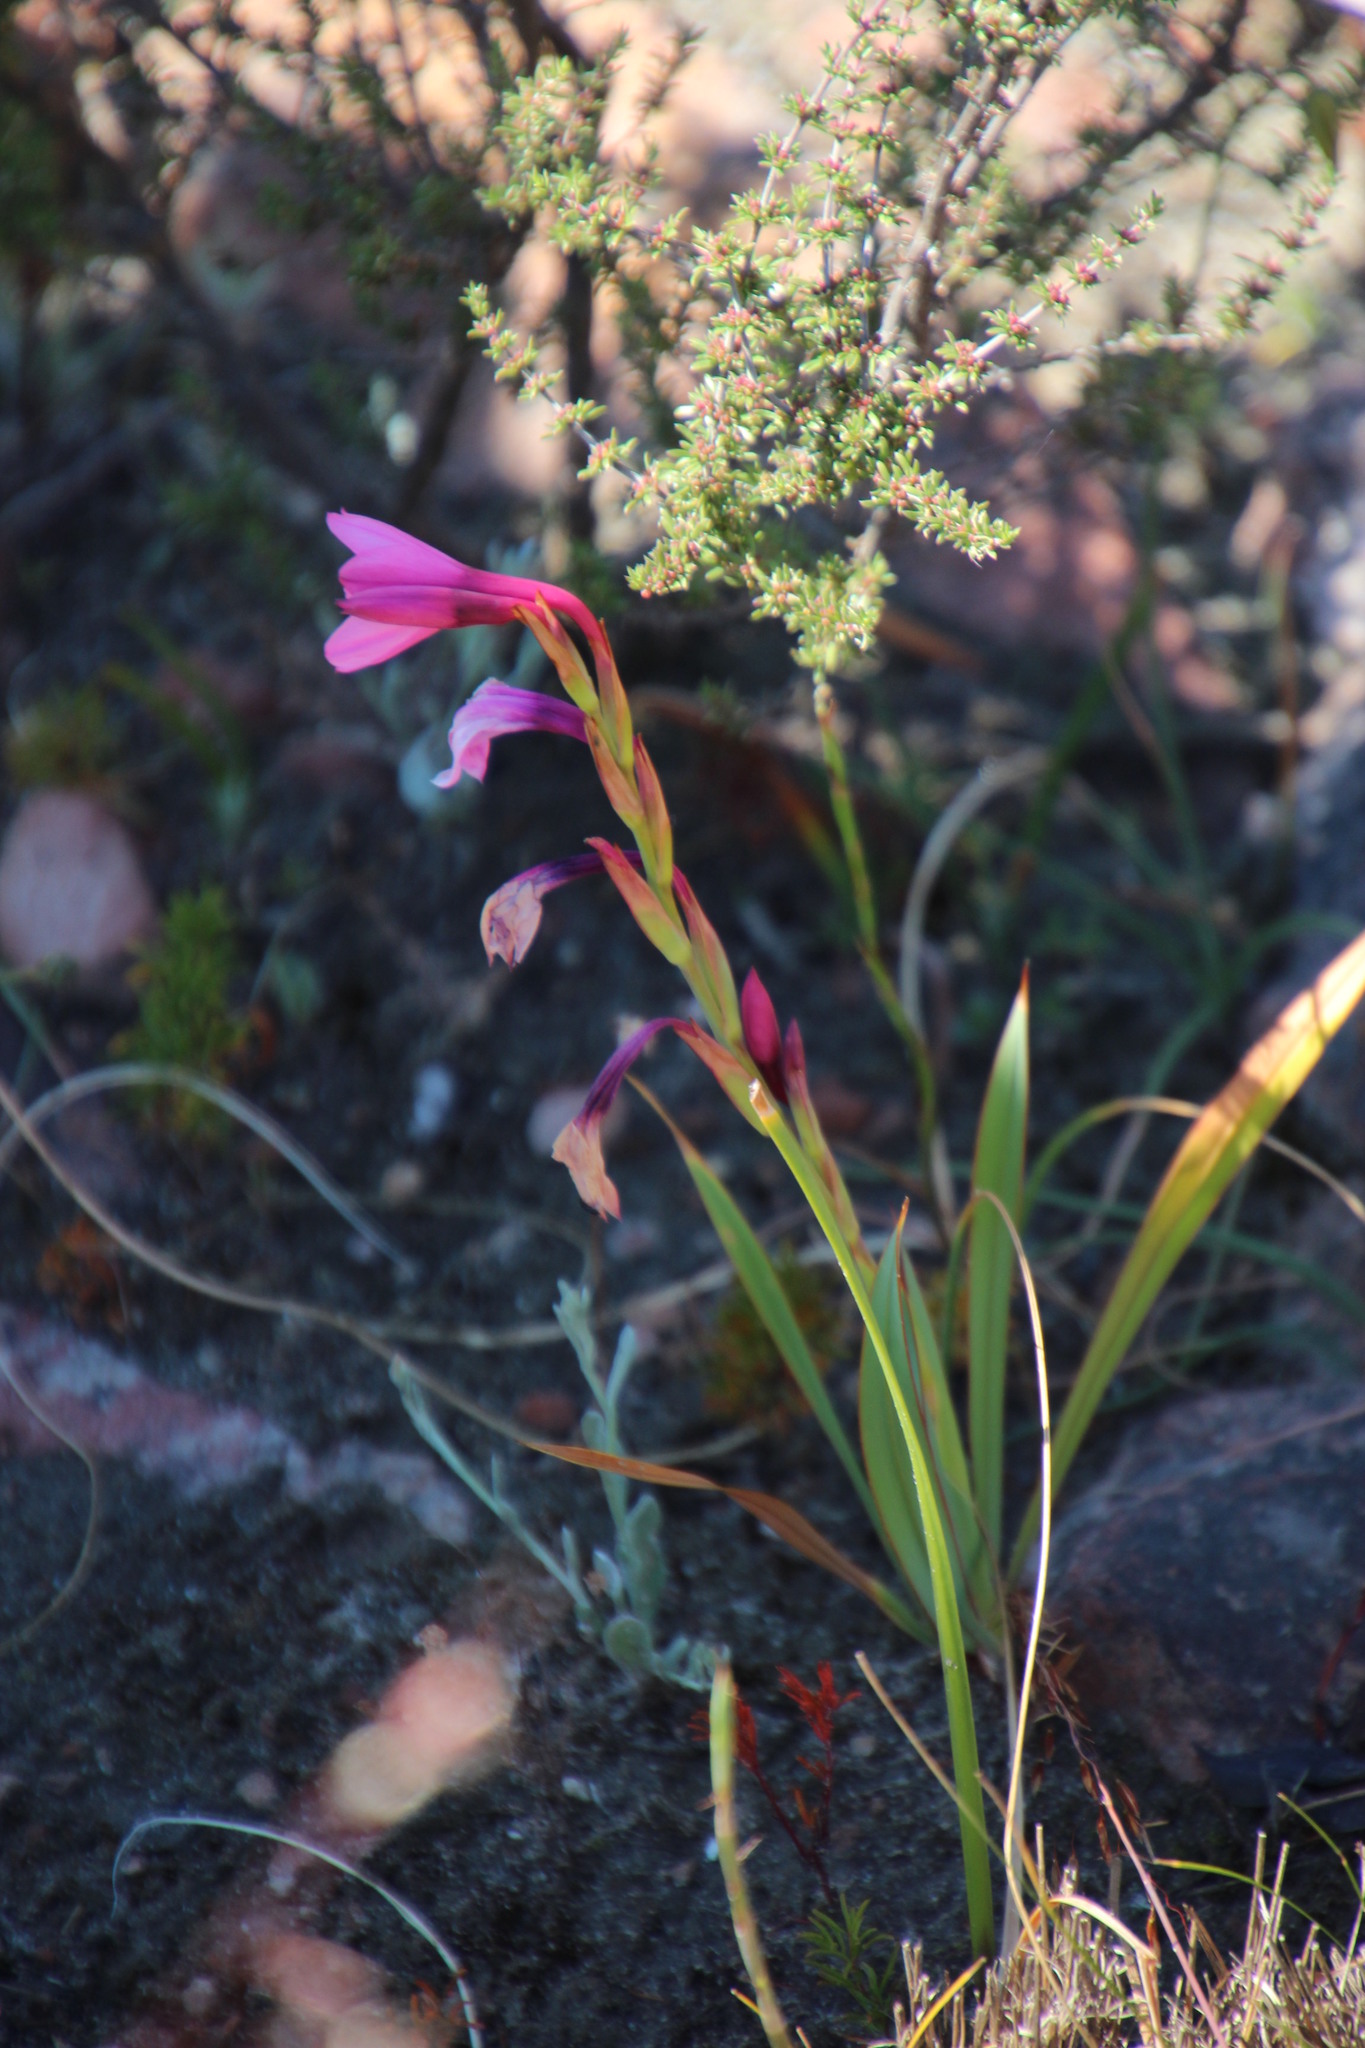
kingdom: Plantae
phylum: Tracheophyta
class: Liliopsida
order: Asparagales
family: Iridaceae
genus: Watsonia
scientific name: Watsonia strictiflora
